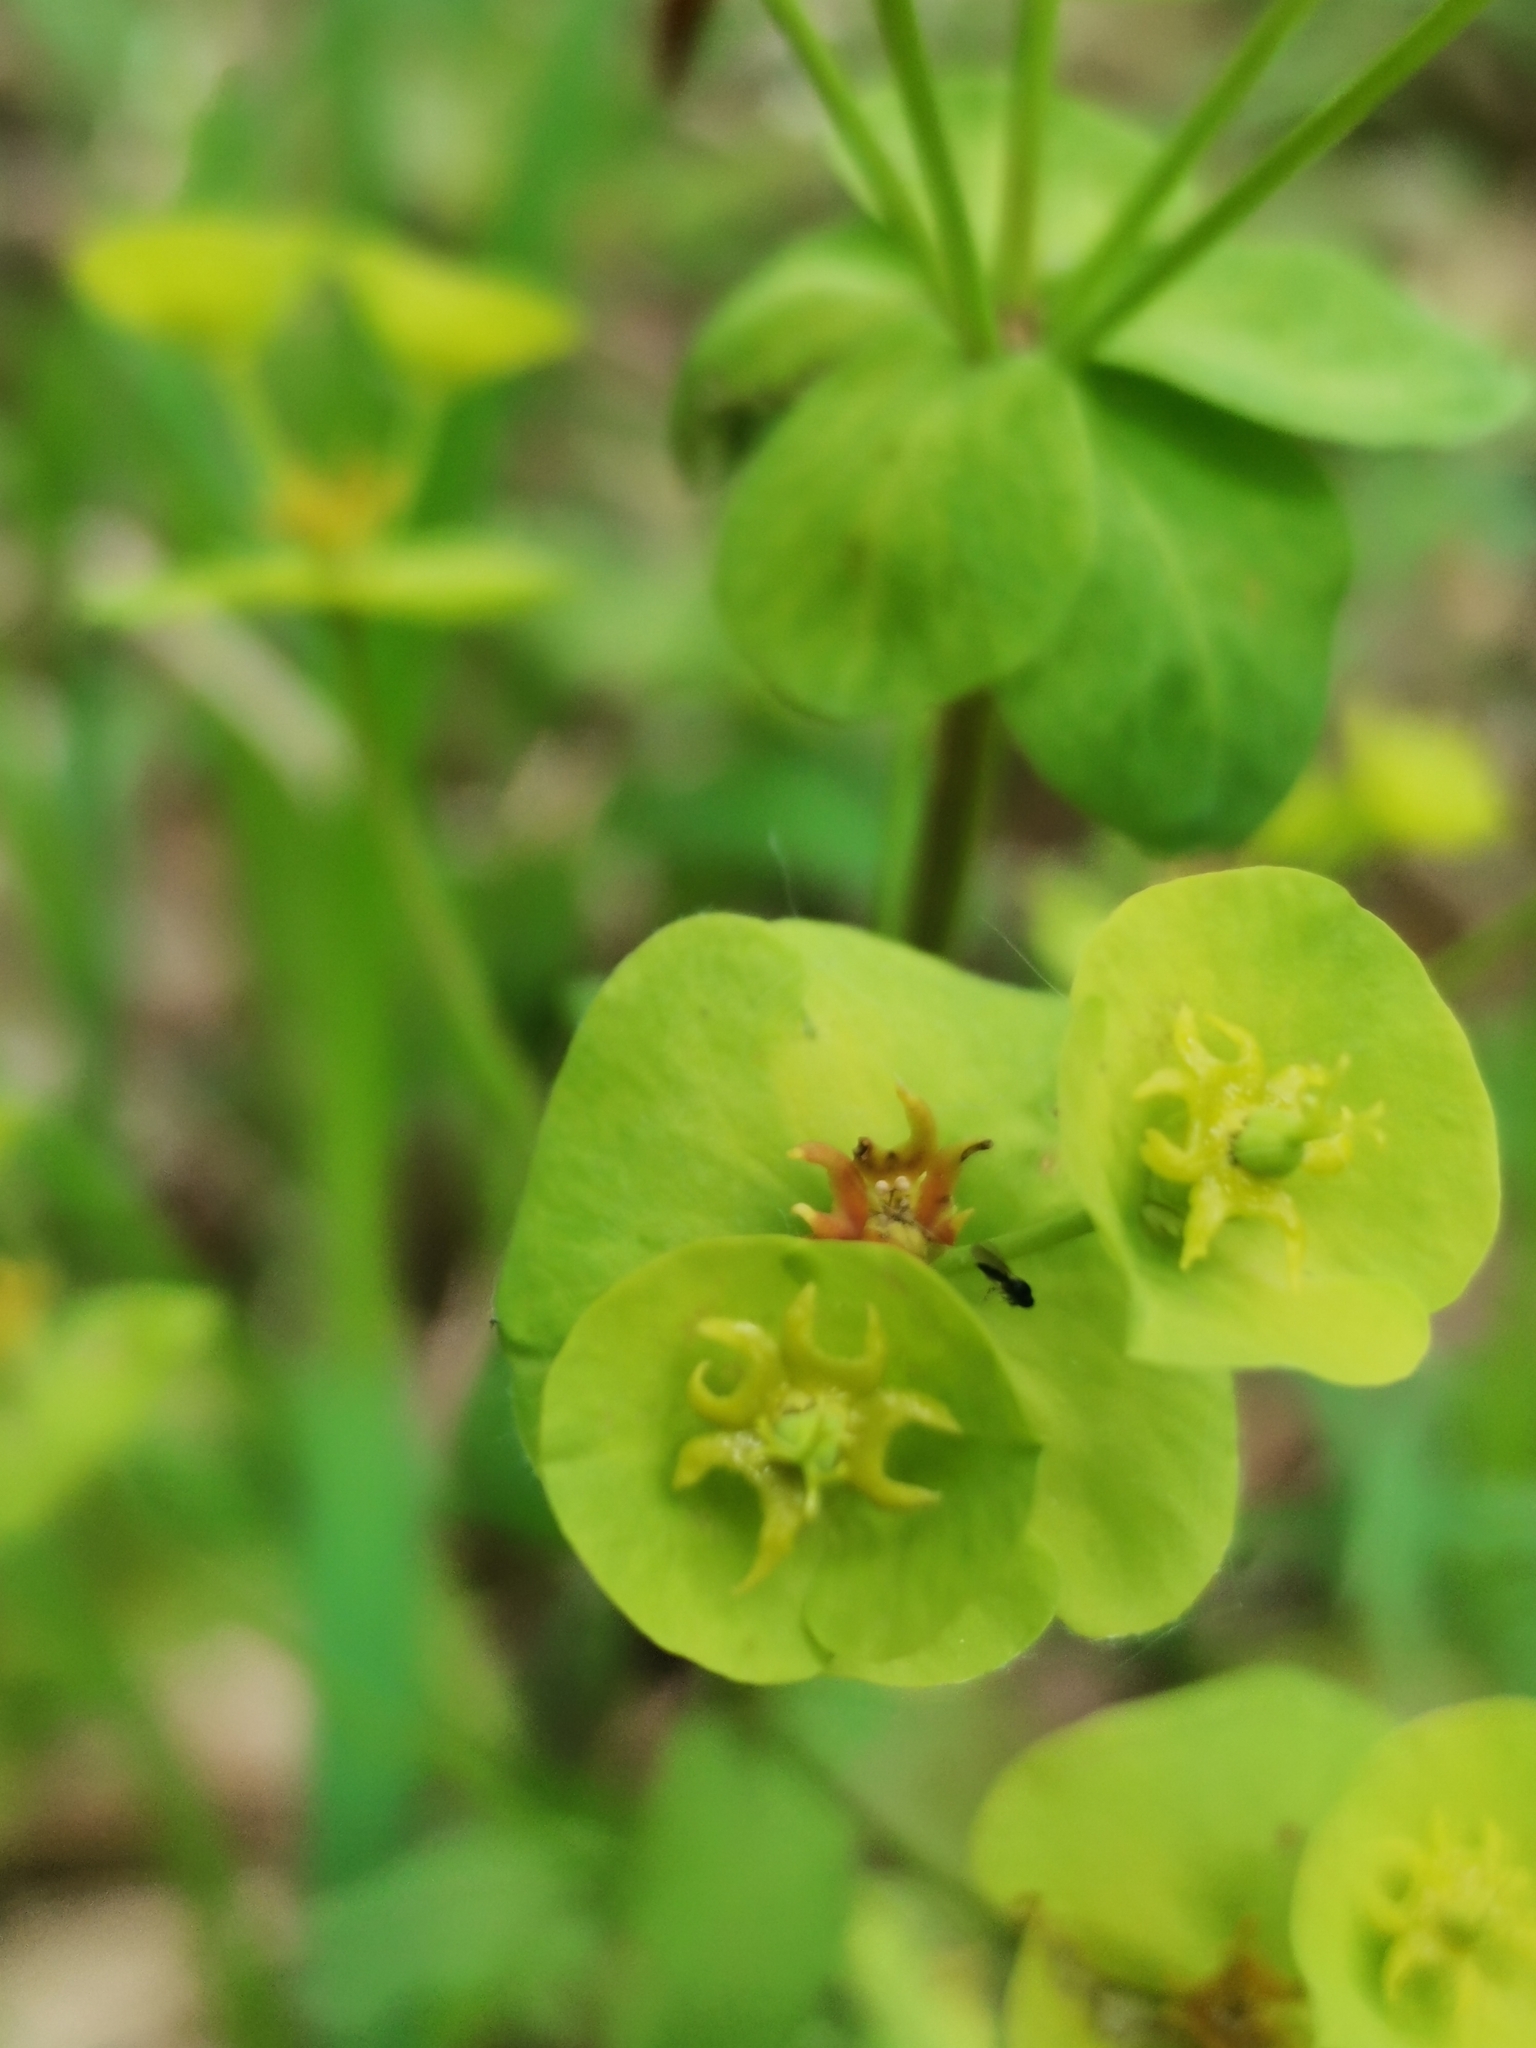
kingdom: Plantae
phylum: Tracheophyta
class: Magnoliopsida
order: Malpighiales
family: Euphorbiaceae
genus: Euphorbia
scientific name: Euphorbia amygdaloides
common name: Wood spurge
